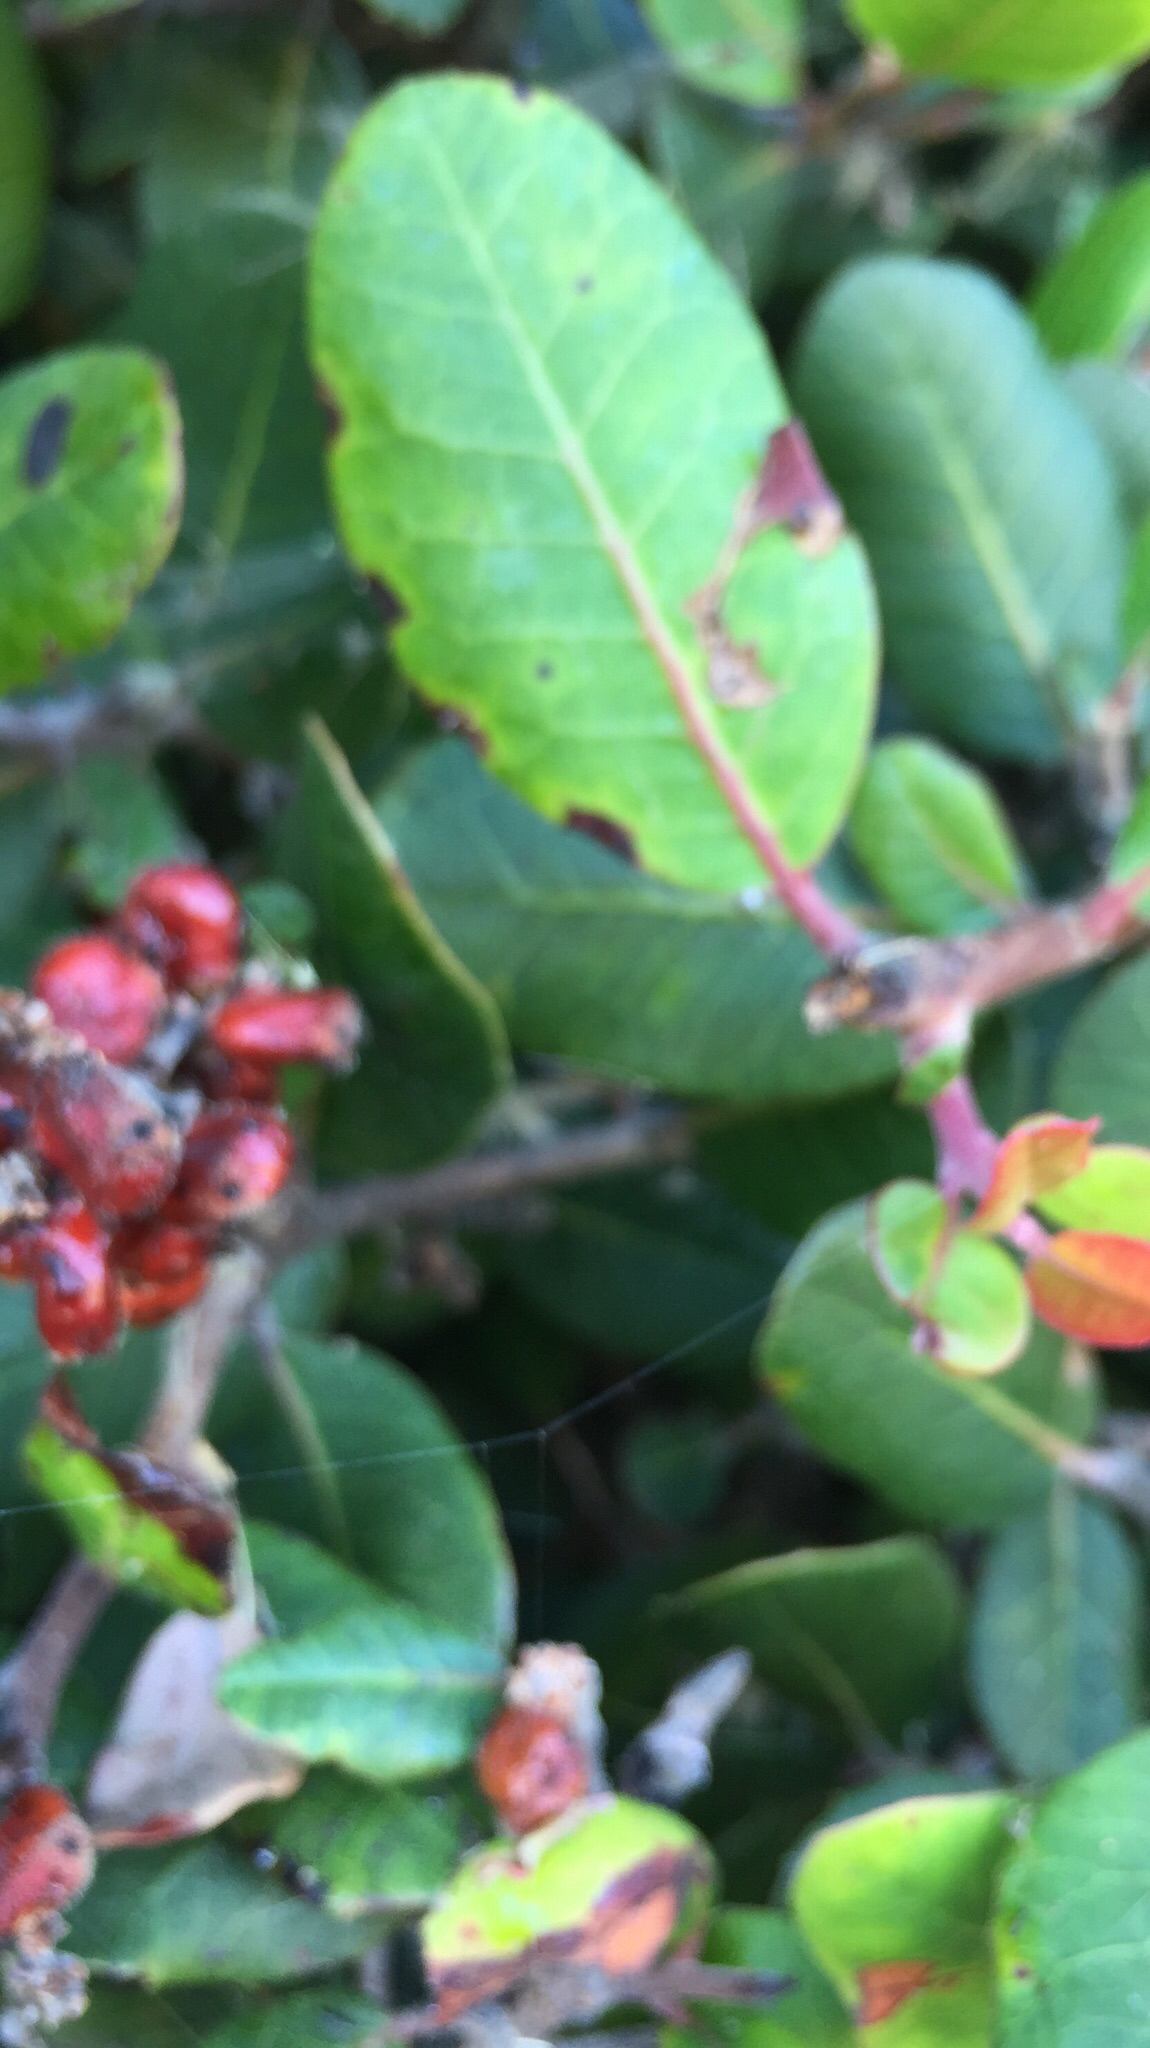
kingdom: Plantae
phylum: Tracheophyta
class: Magnoliopsida
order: Sapindales
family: Anacardiaceae
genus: Rhus
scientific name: Rhus integrifolia
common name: Lemonade sumac
